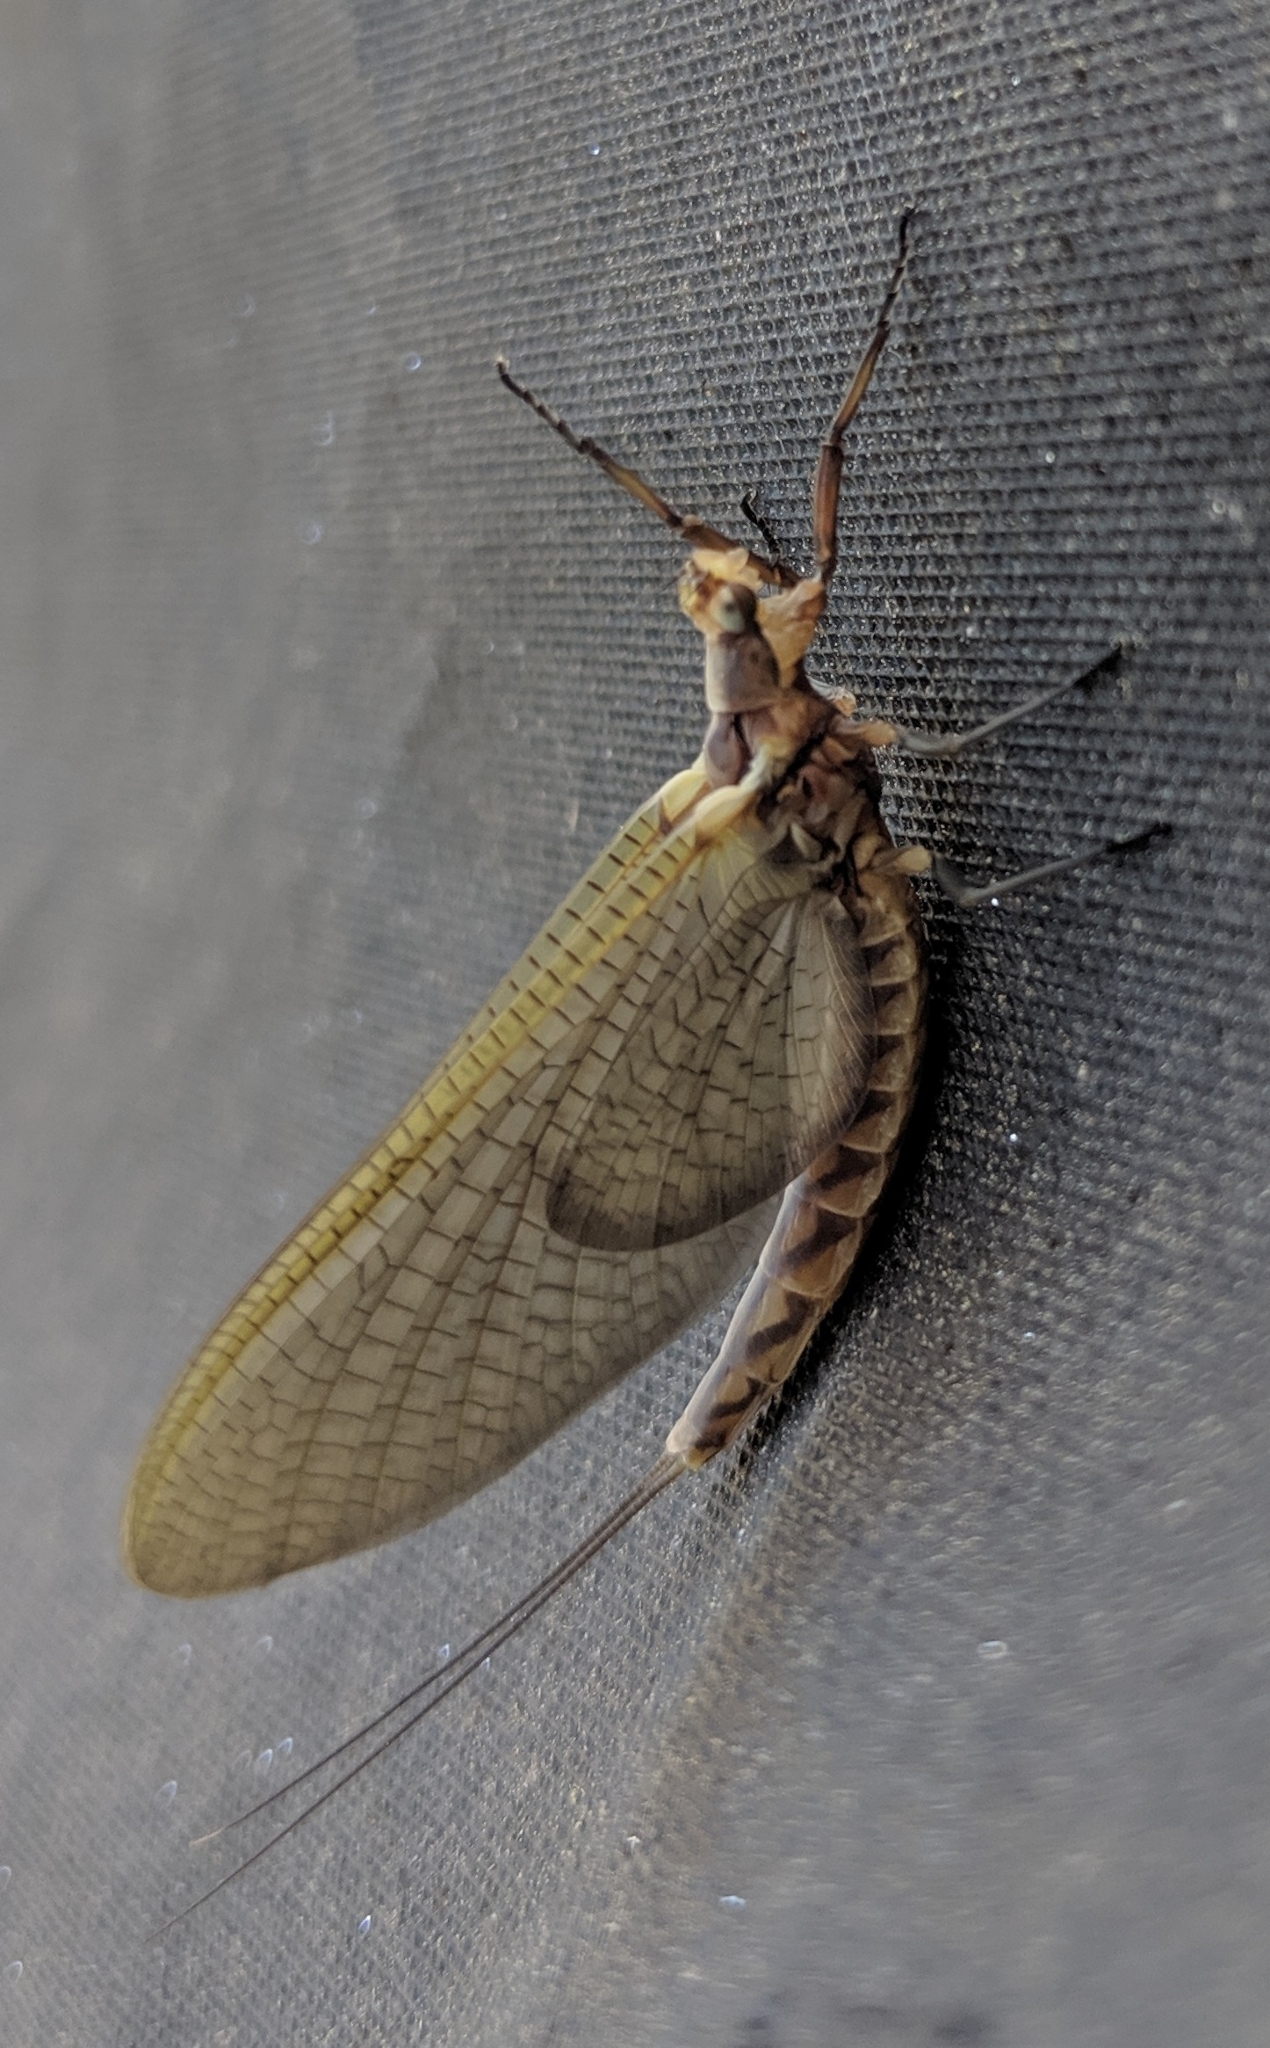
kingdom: Animalia
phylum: Arthropoda
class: Insecta
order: Ephemeroptera
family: Ephemeridae
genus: Hexagenia
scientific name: Hexagenia limbata
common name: Giant mayfly
